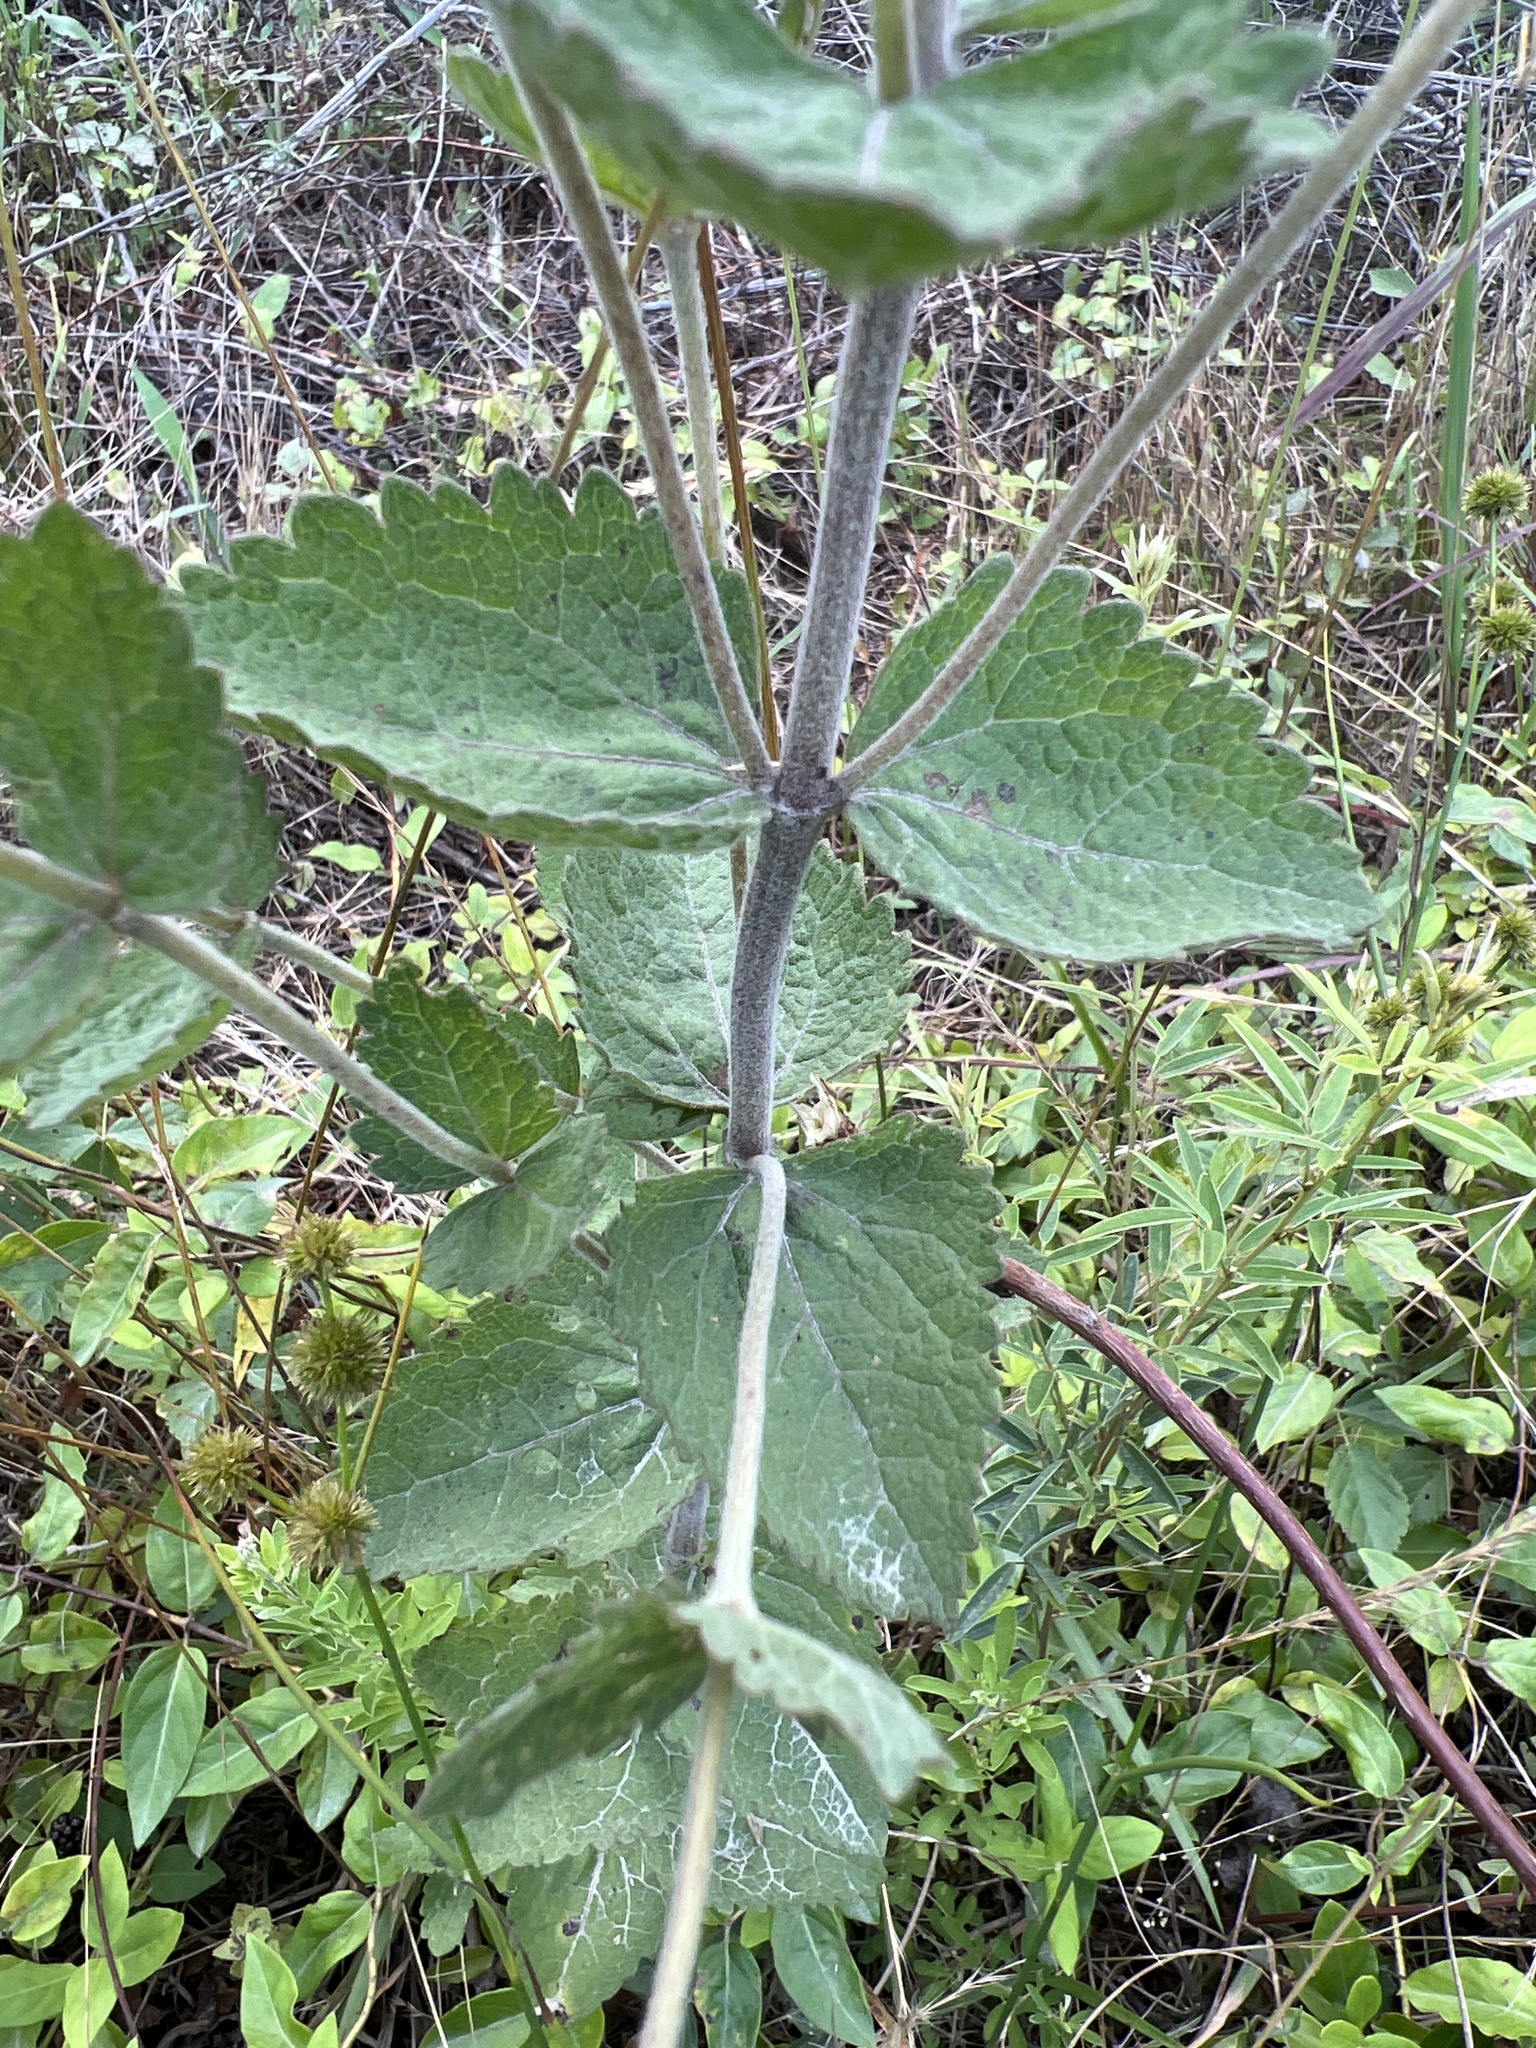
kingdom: Plantae
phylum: Tracheophyta
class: Magnoliopsida
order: Asterales
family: Asteraceae
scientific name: Asteraceae
